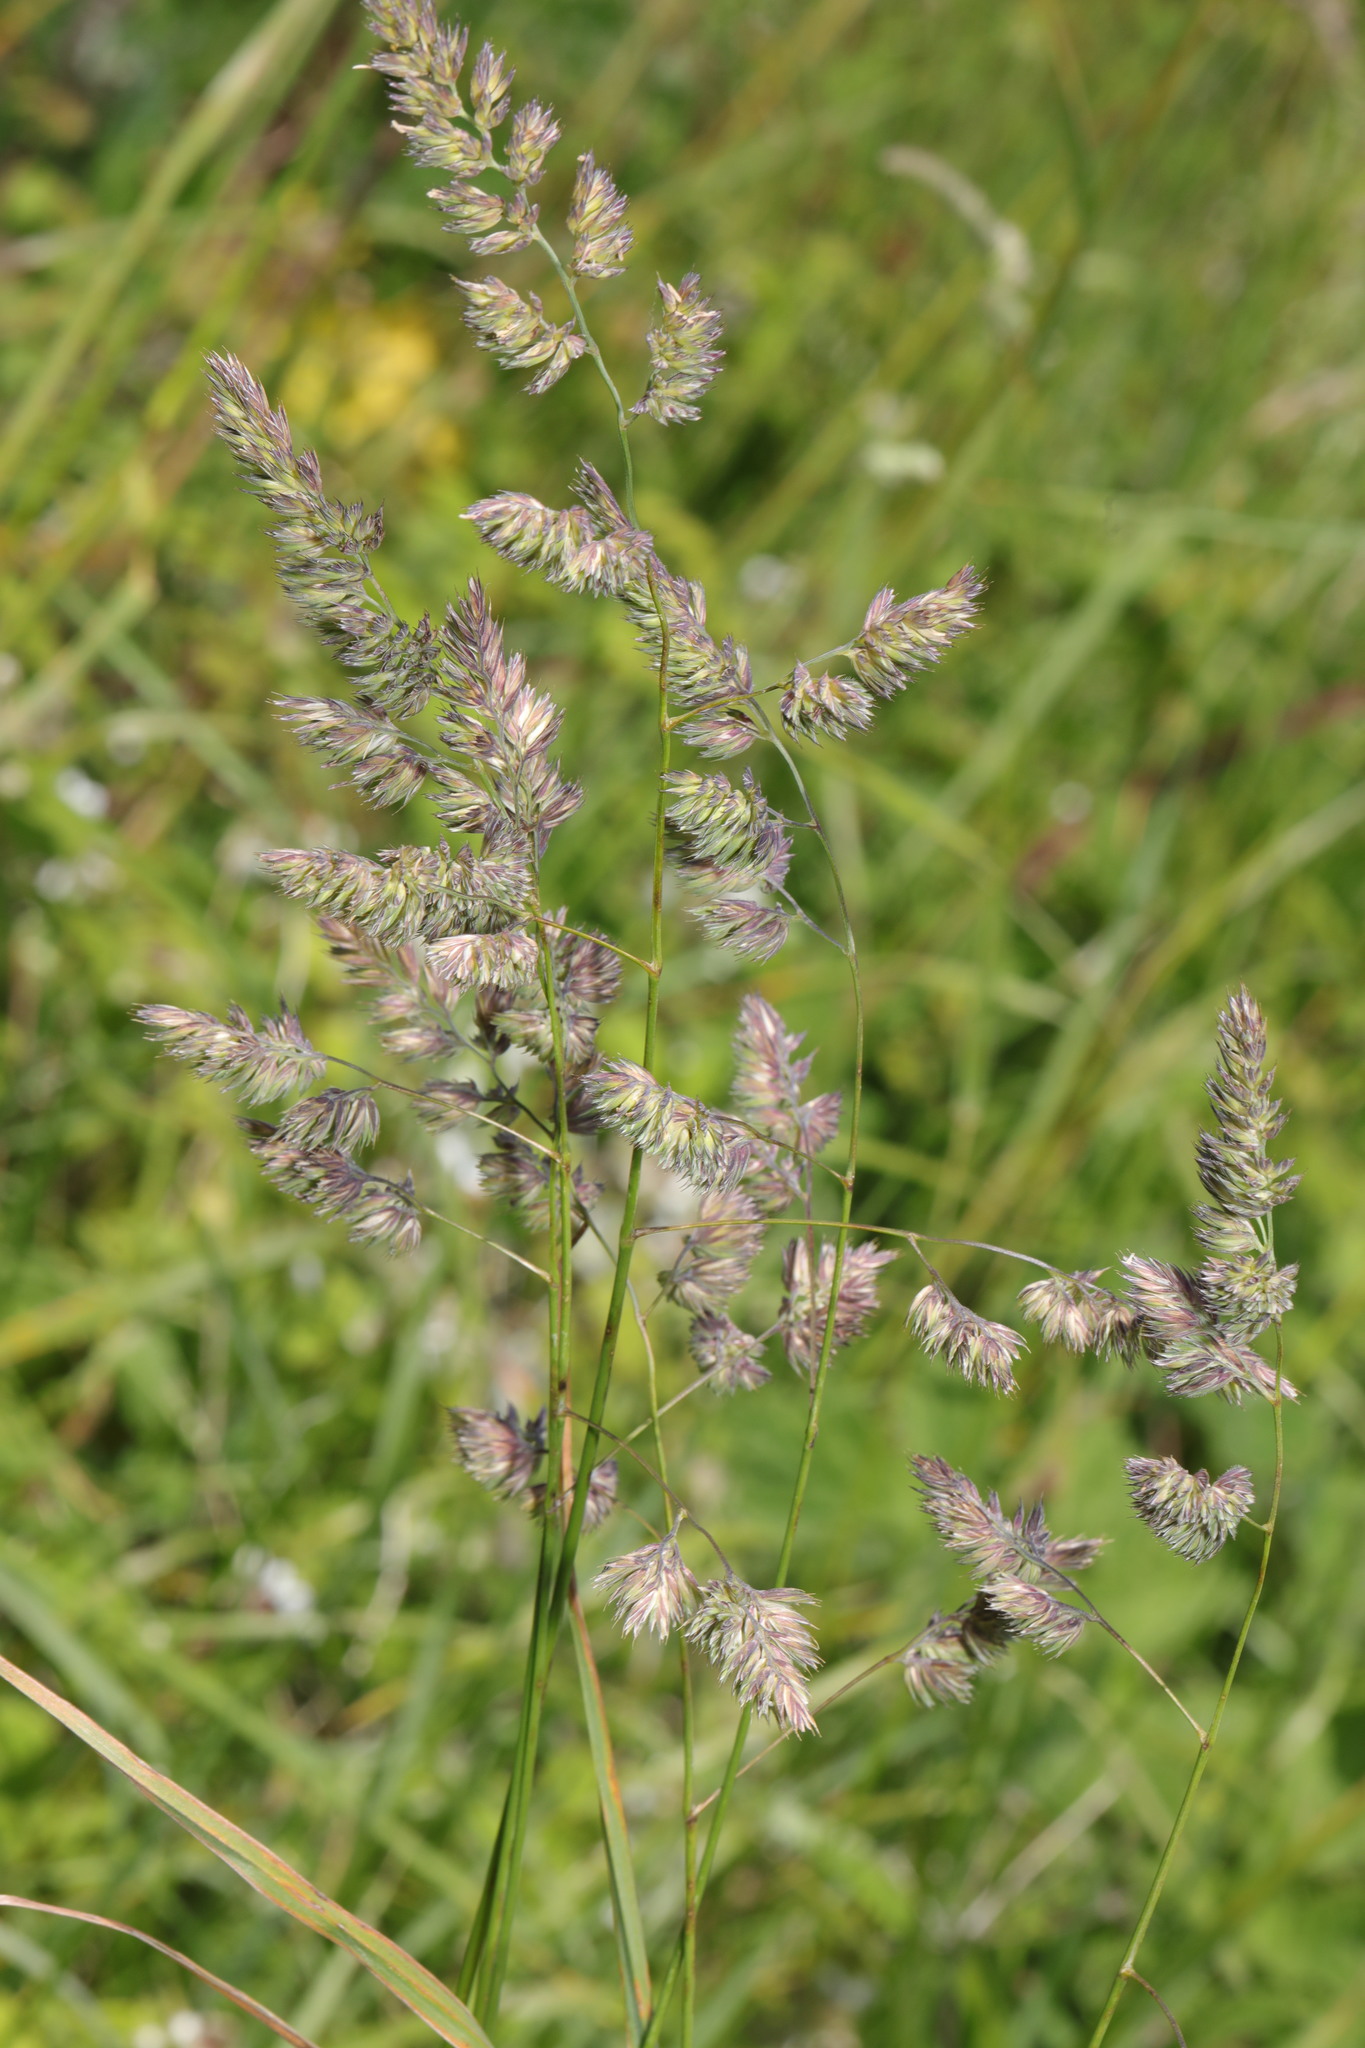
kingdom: Plantae
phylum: Tracheophyta
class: Liliopsida
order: Poales
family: Poaceae
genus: Dactylis
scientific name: Dactylis glomerata
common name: Orchardgrass
